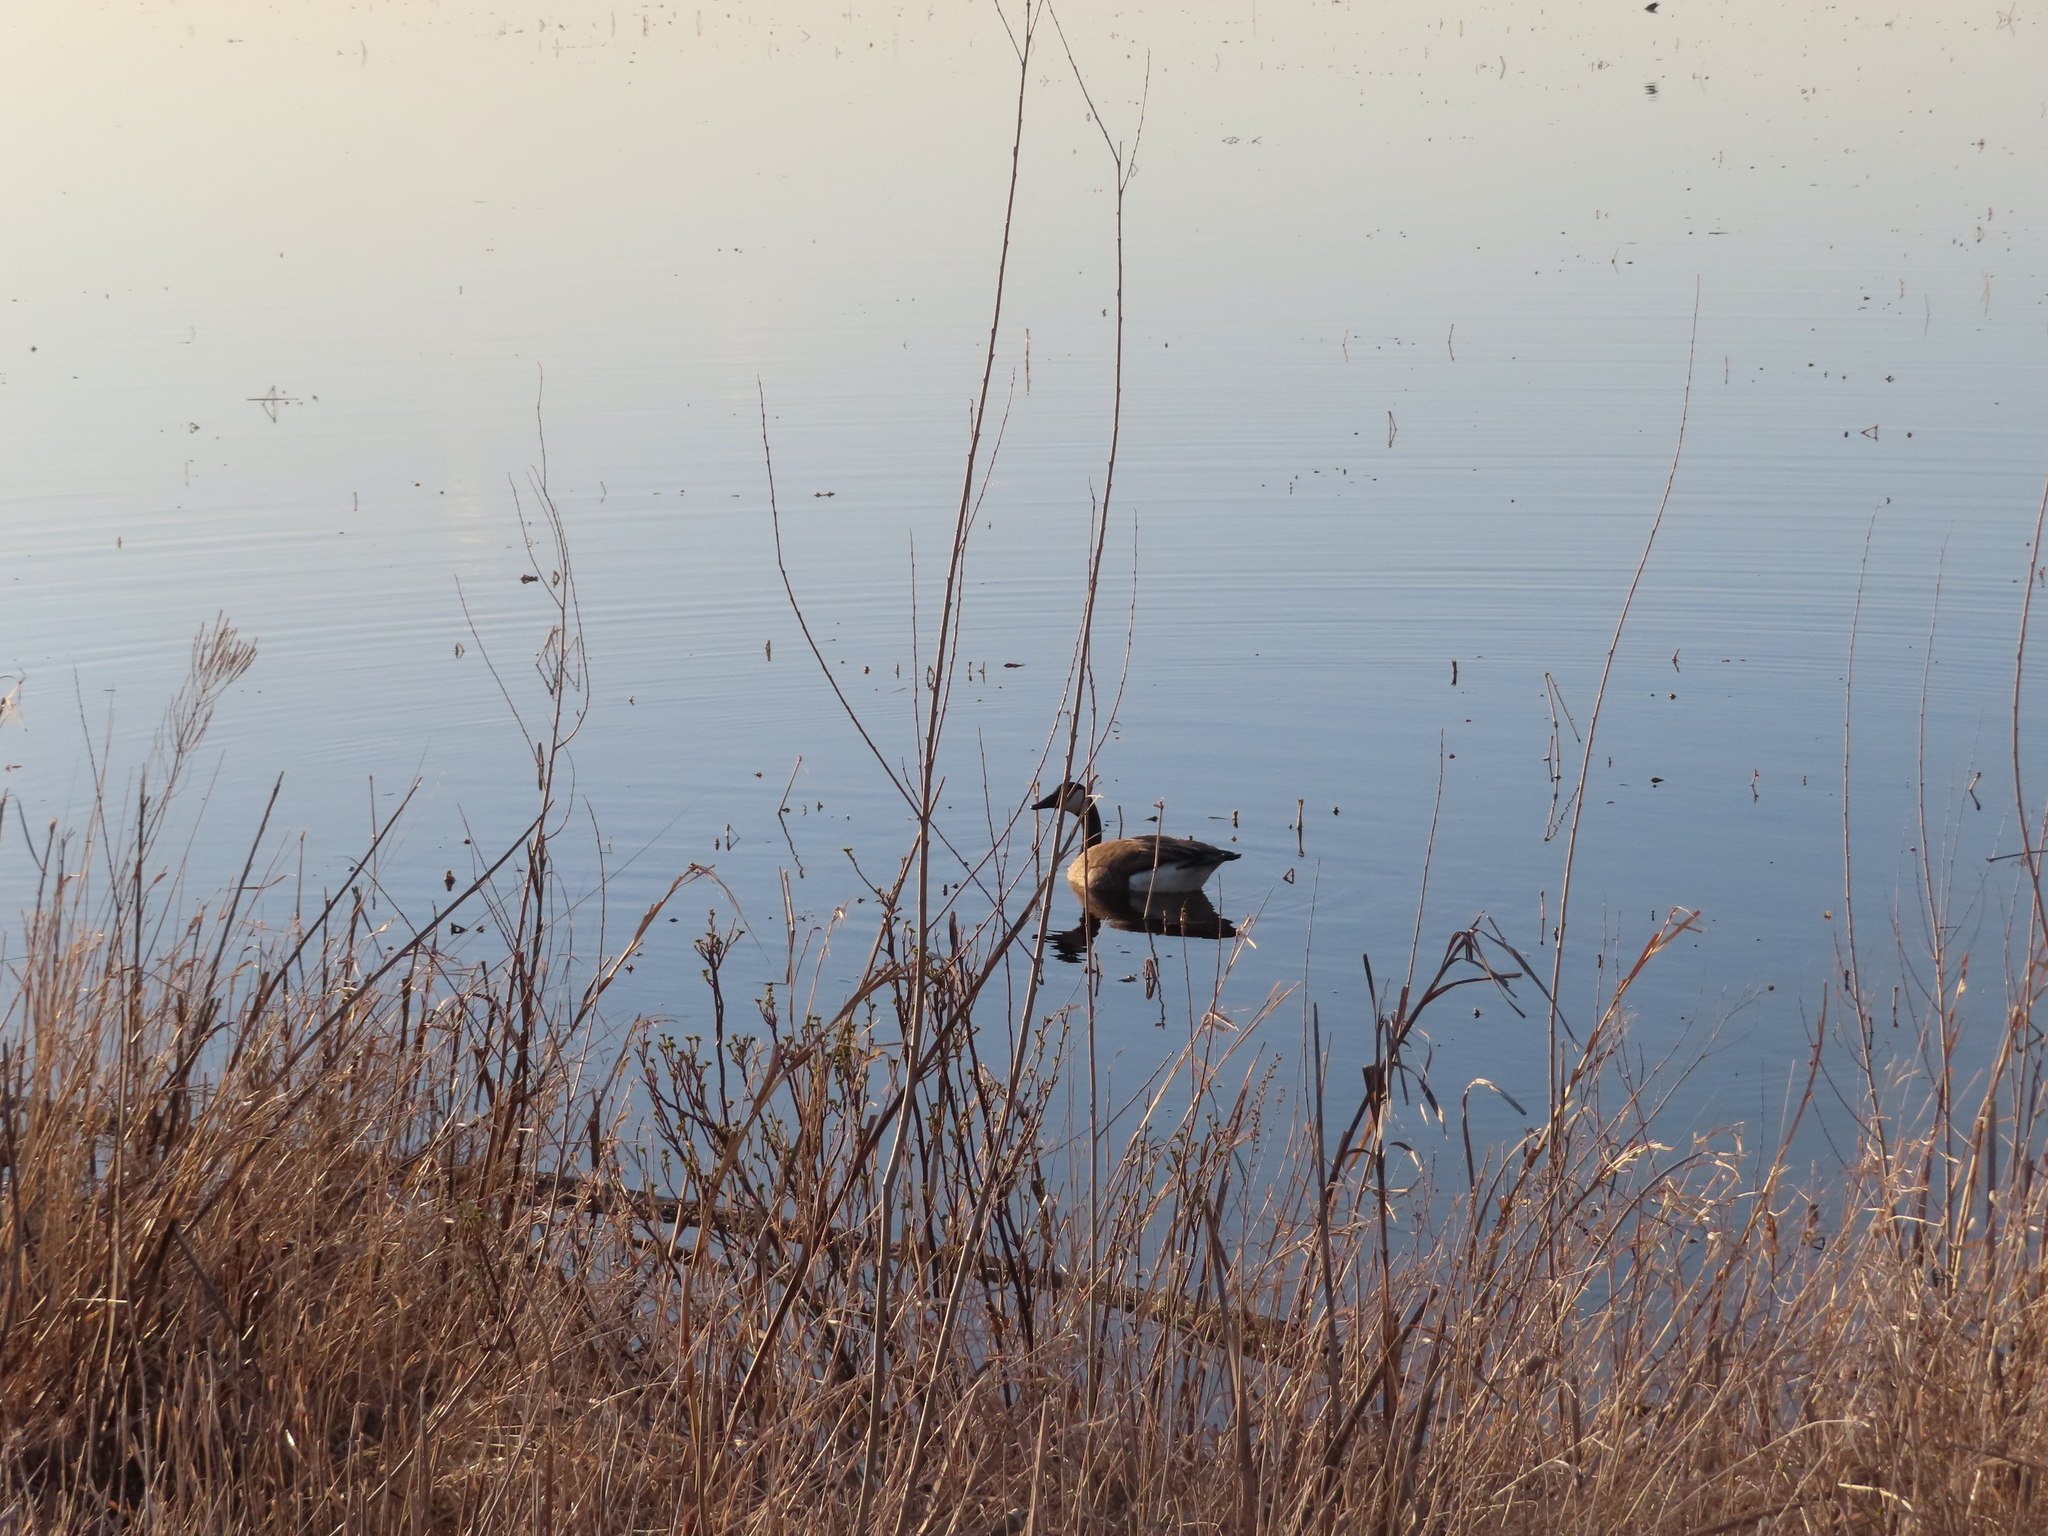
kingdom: Animalia
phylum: Chordata
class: Aves
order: Anseriformes
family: Anatidae
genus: Branta
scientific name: Branta canadensis
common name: Canada goose
